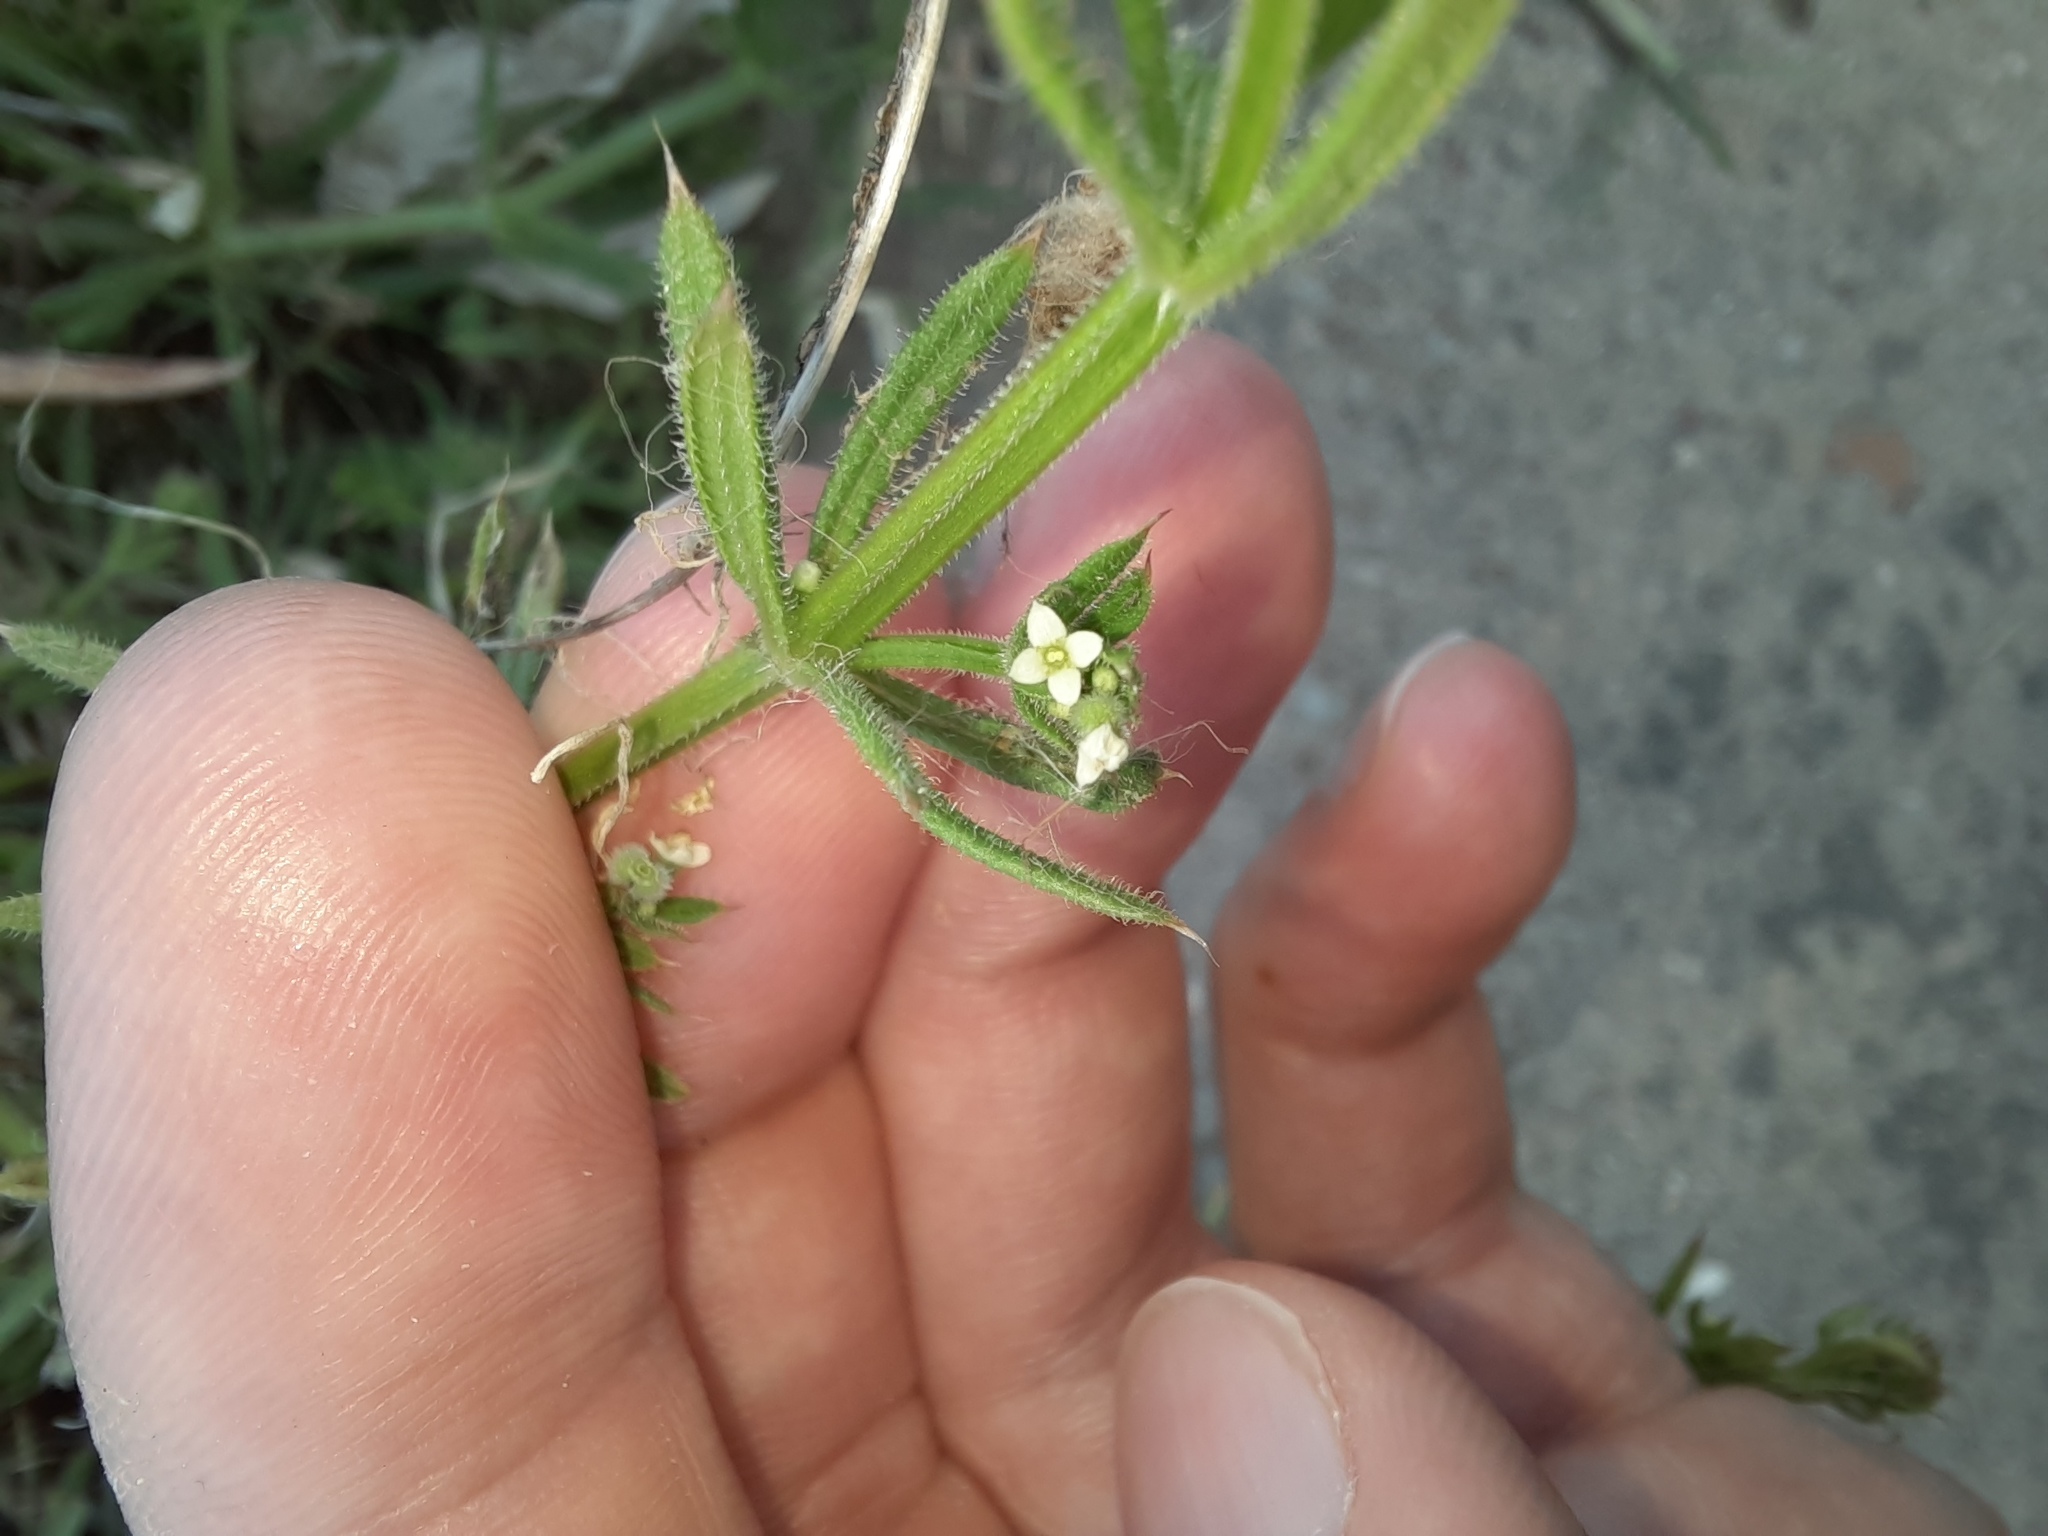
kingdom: Plantae
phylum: Tracheophyta
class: Magnoliopsida
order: Gentianales
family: Rubiaceae
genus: Galium
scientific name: Galium aparine
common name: Cleavers
